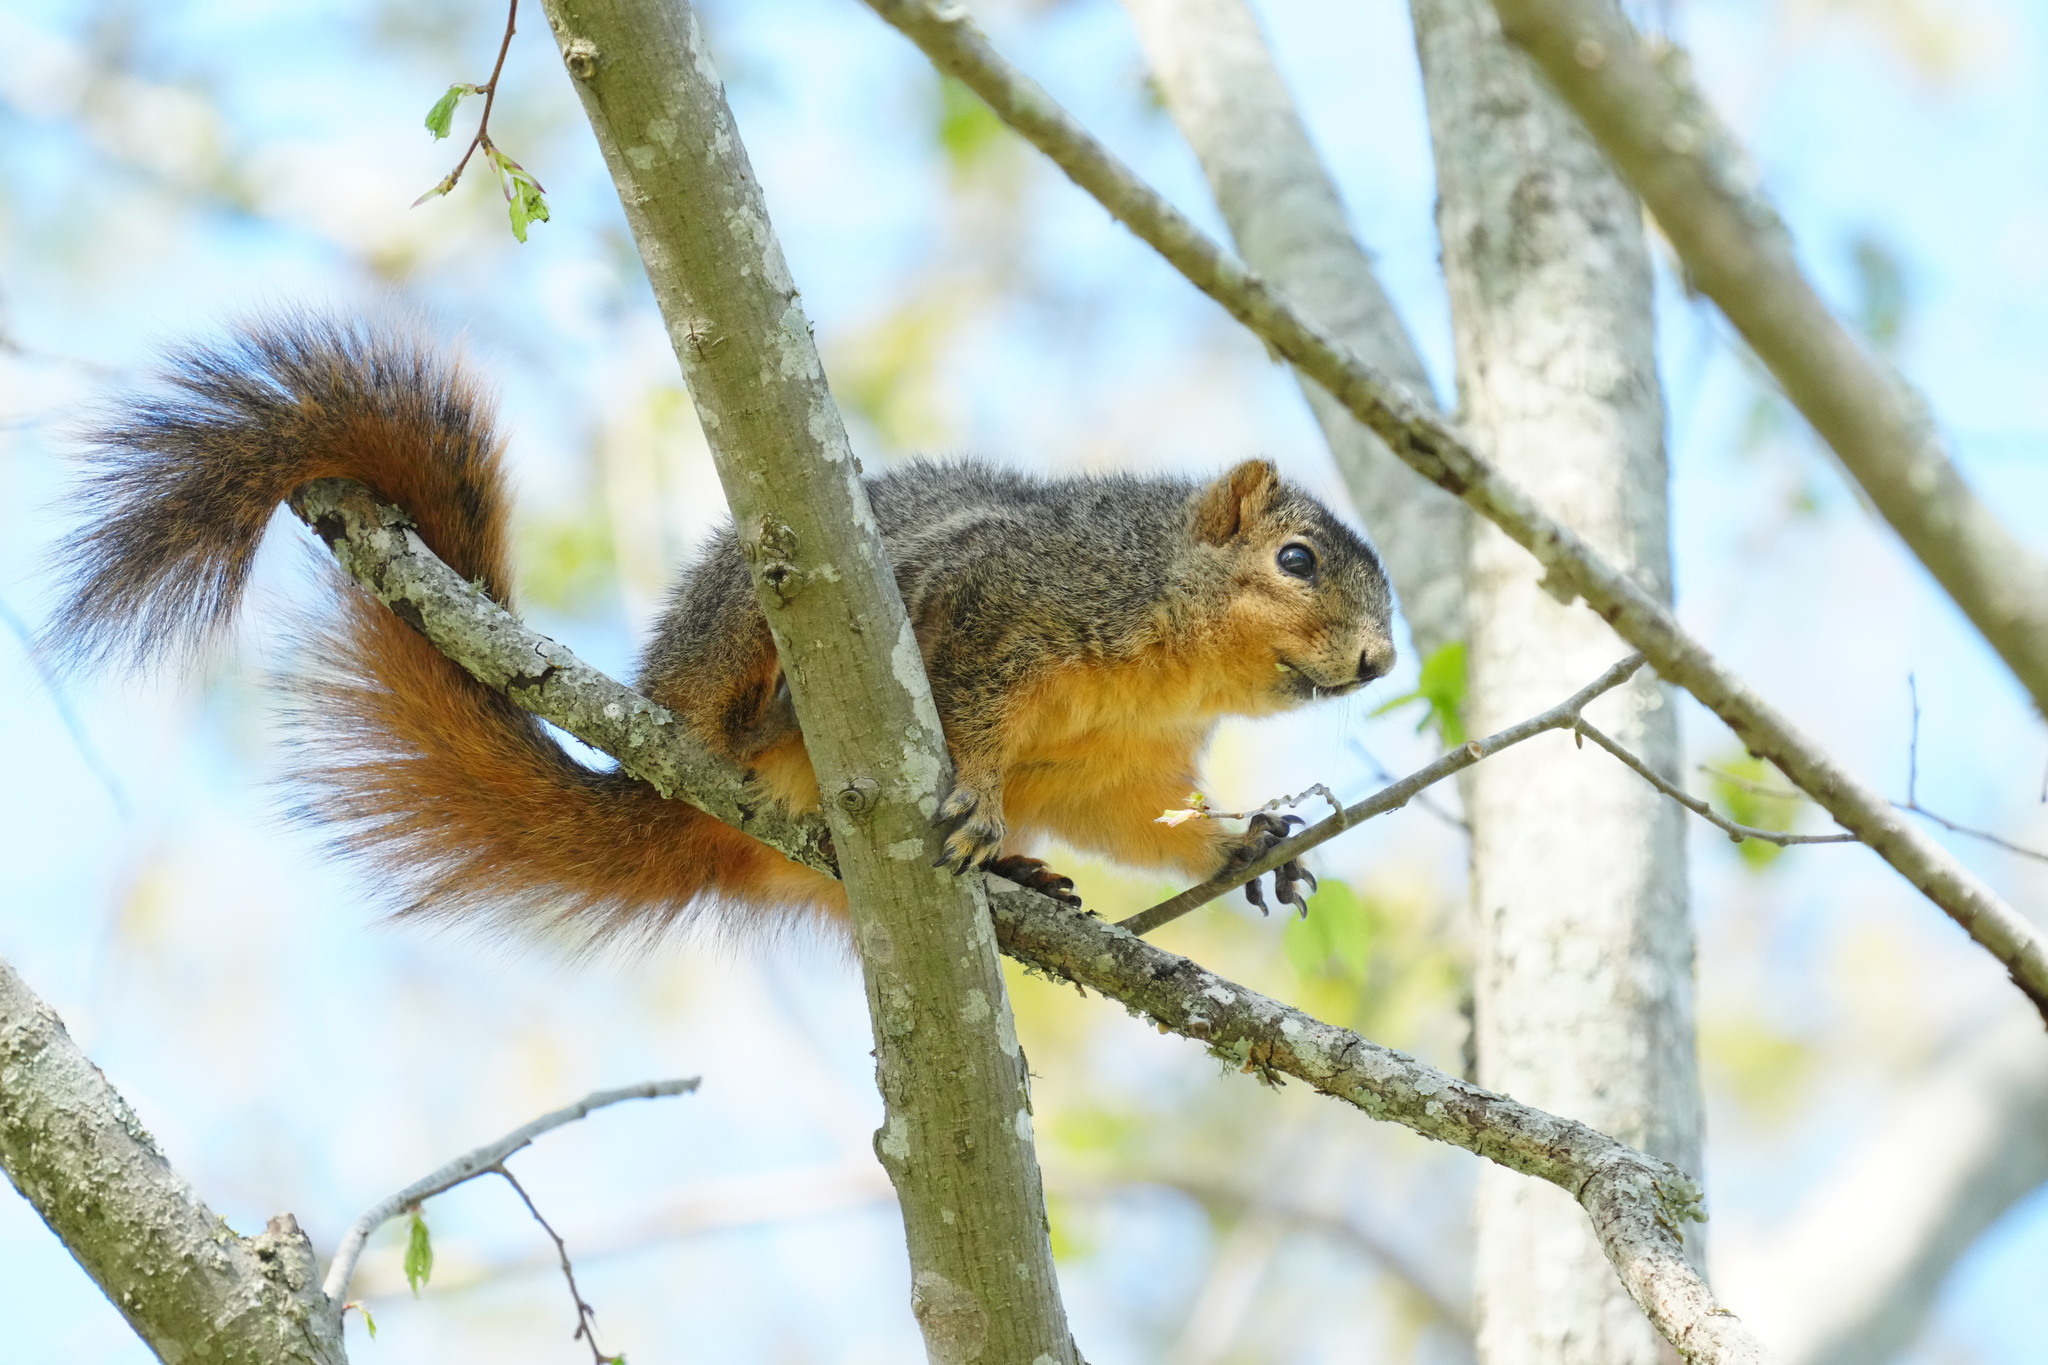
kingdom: Animalia
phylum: Chordata
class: Mammalia
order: Rodentia
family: Sciuridae
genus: Sciurus
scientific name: Sciurus niger
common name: Fox squirrel
